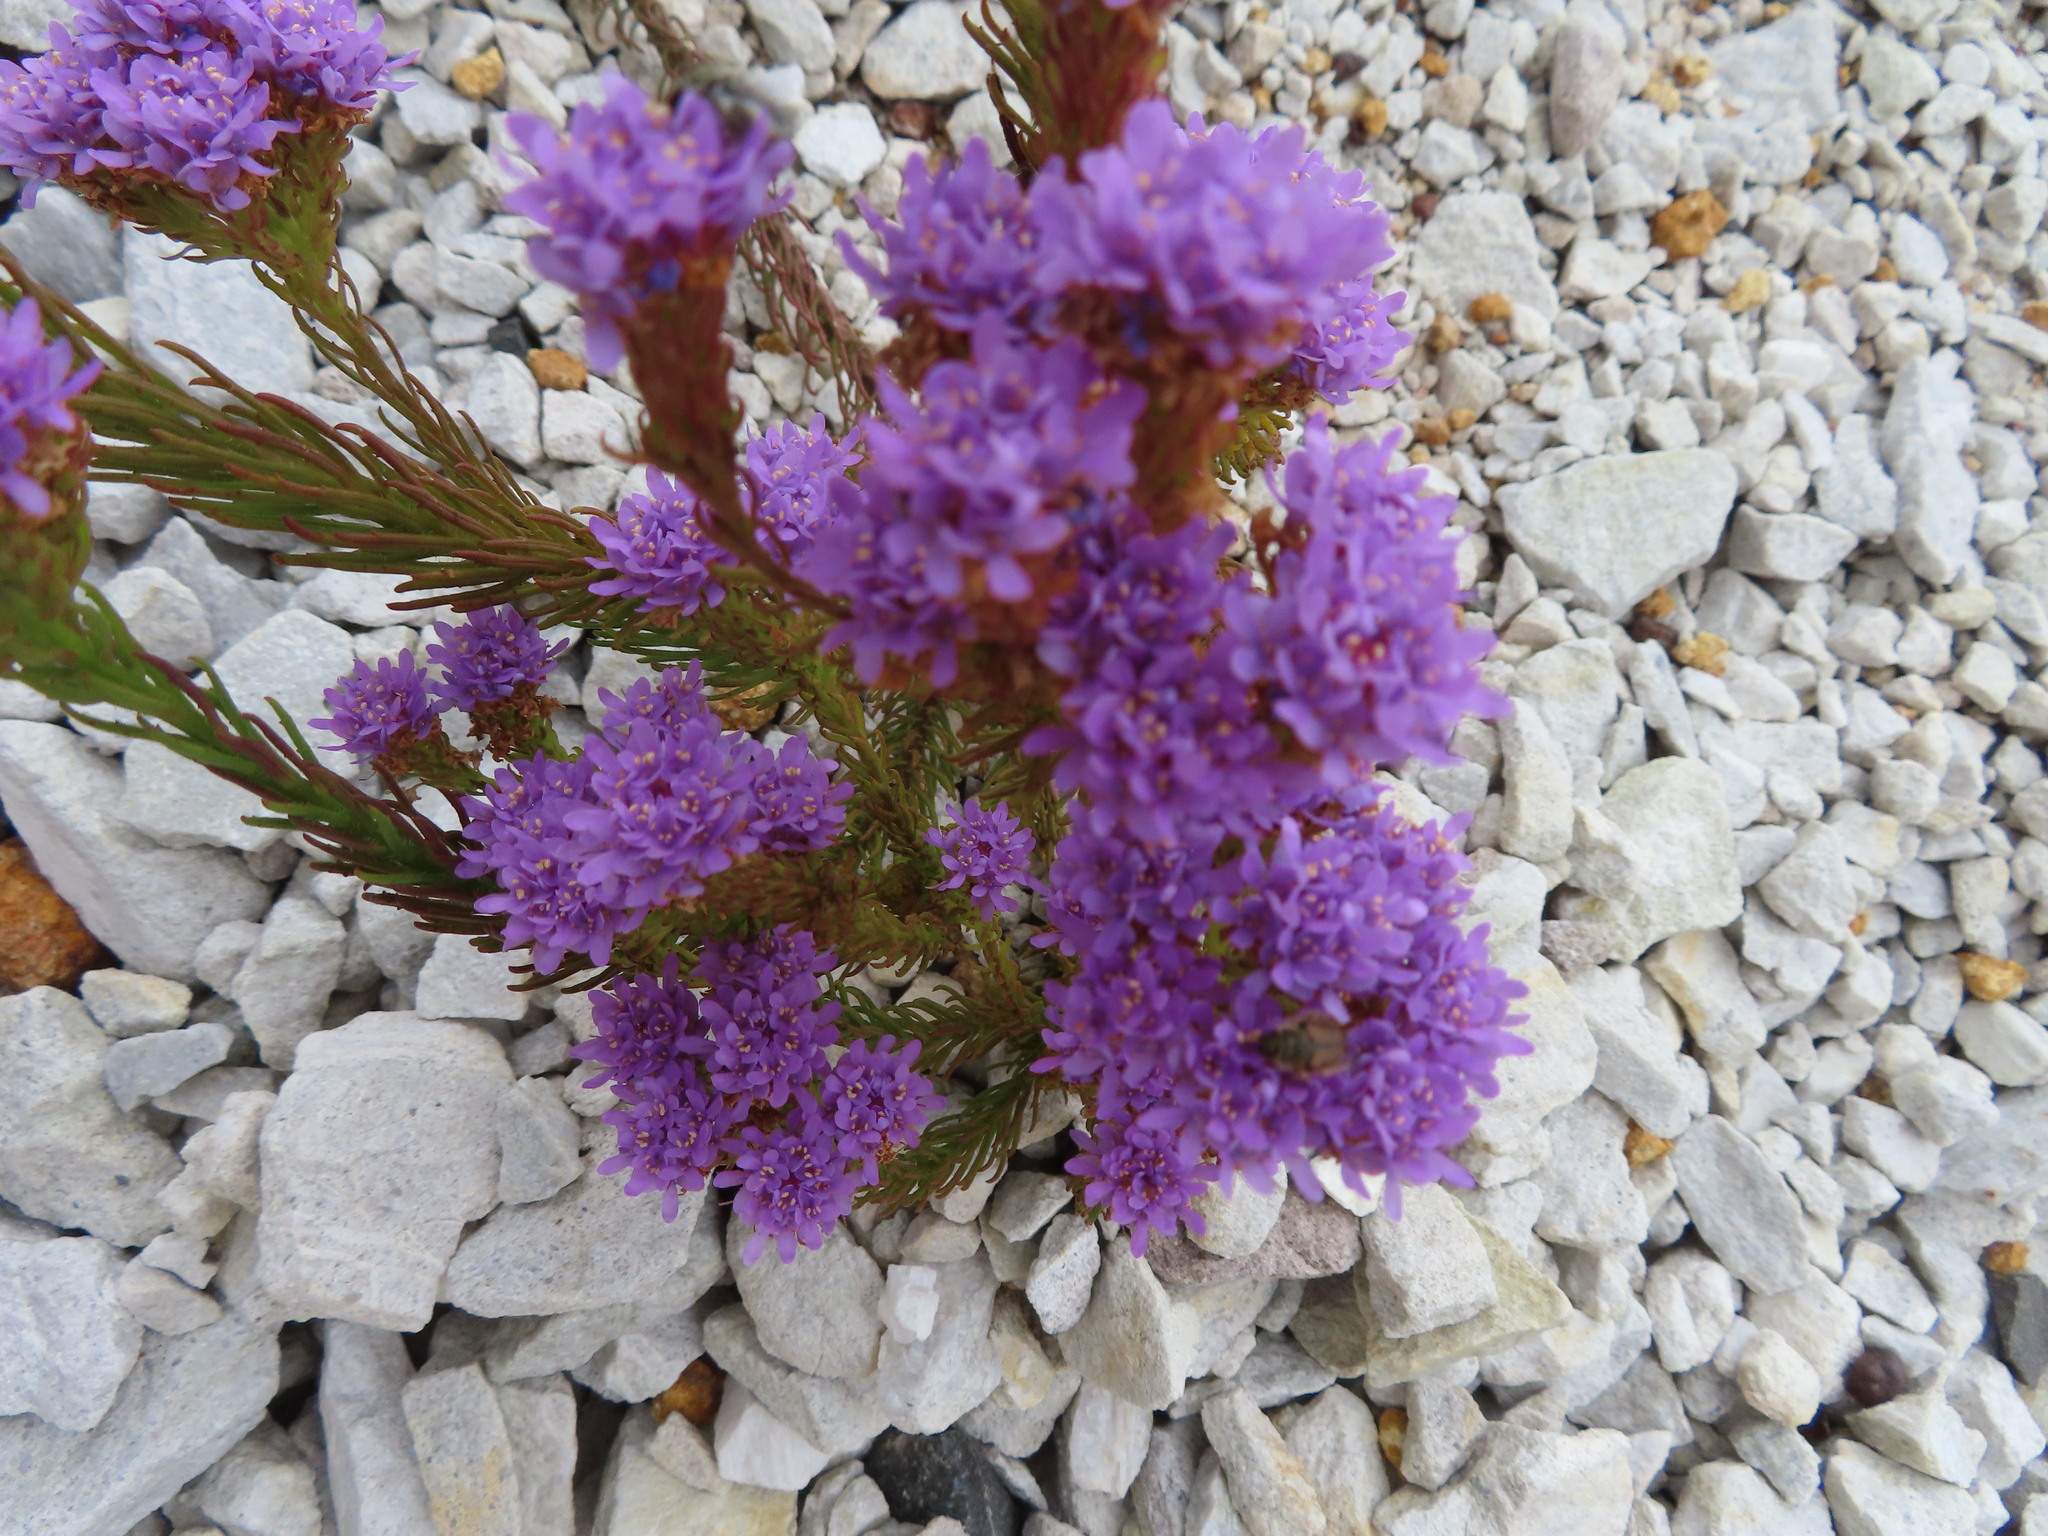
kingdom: Plantae
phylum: Tracheophyta
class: Magnoliopsida
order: Lamiales
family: Scrophulariaceae
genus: Pseudoselago
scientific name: Pseudoselago spuria
